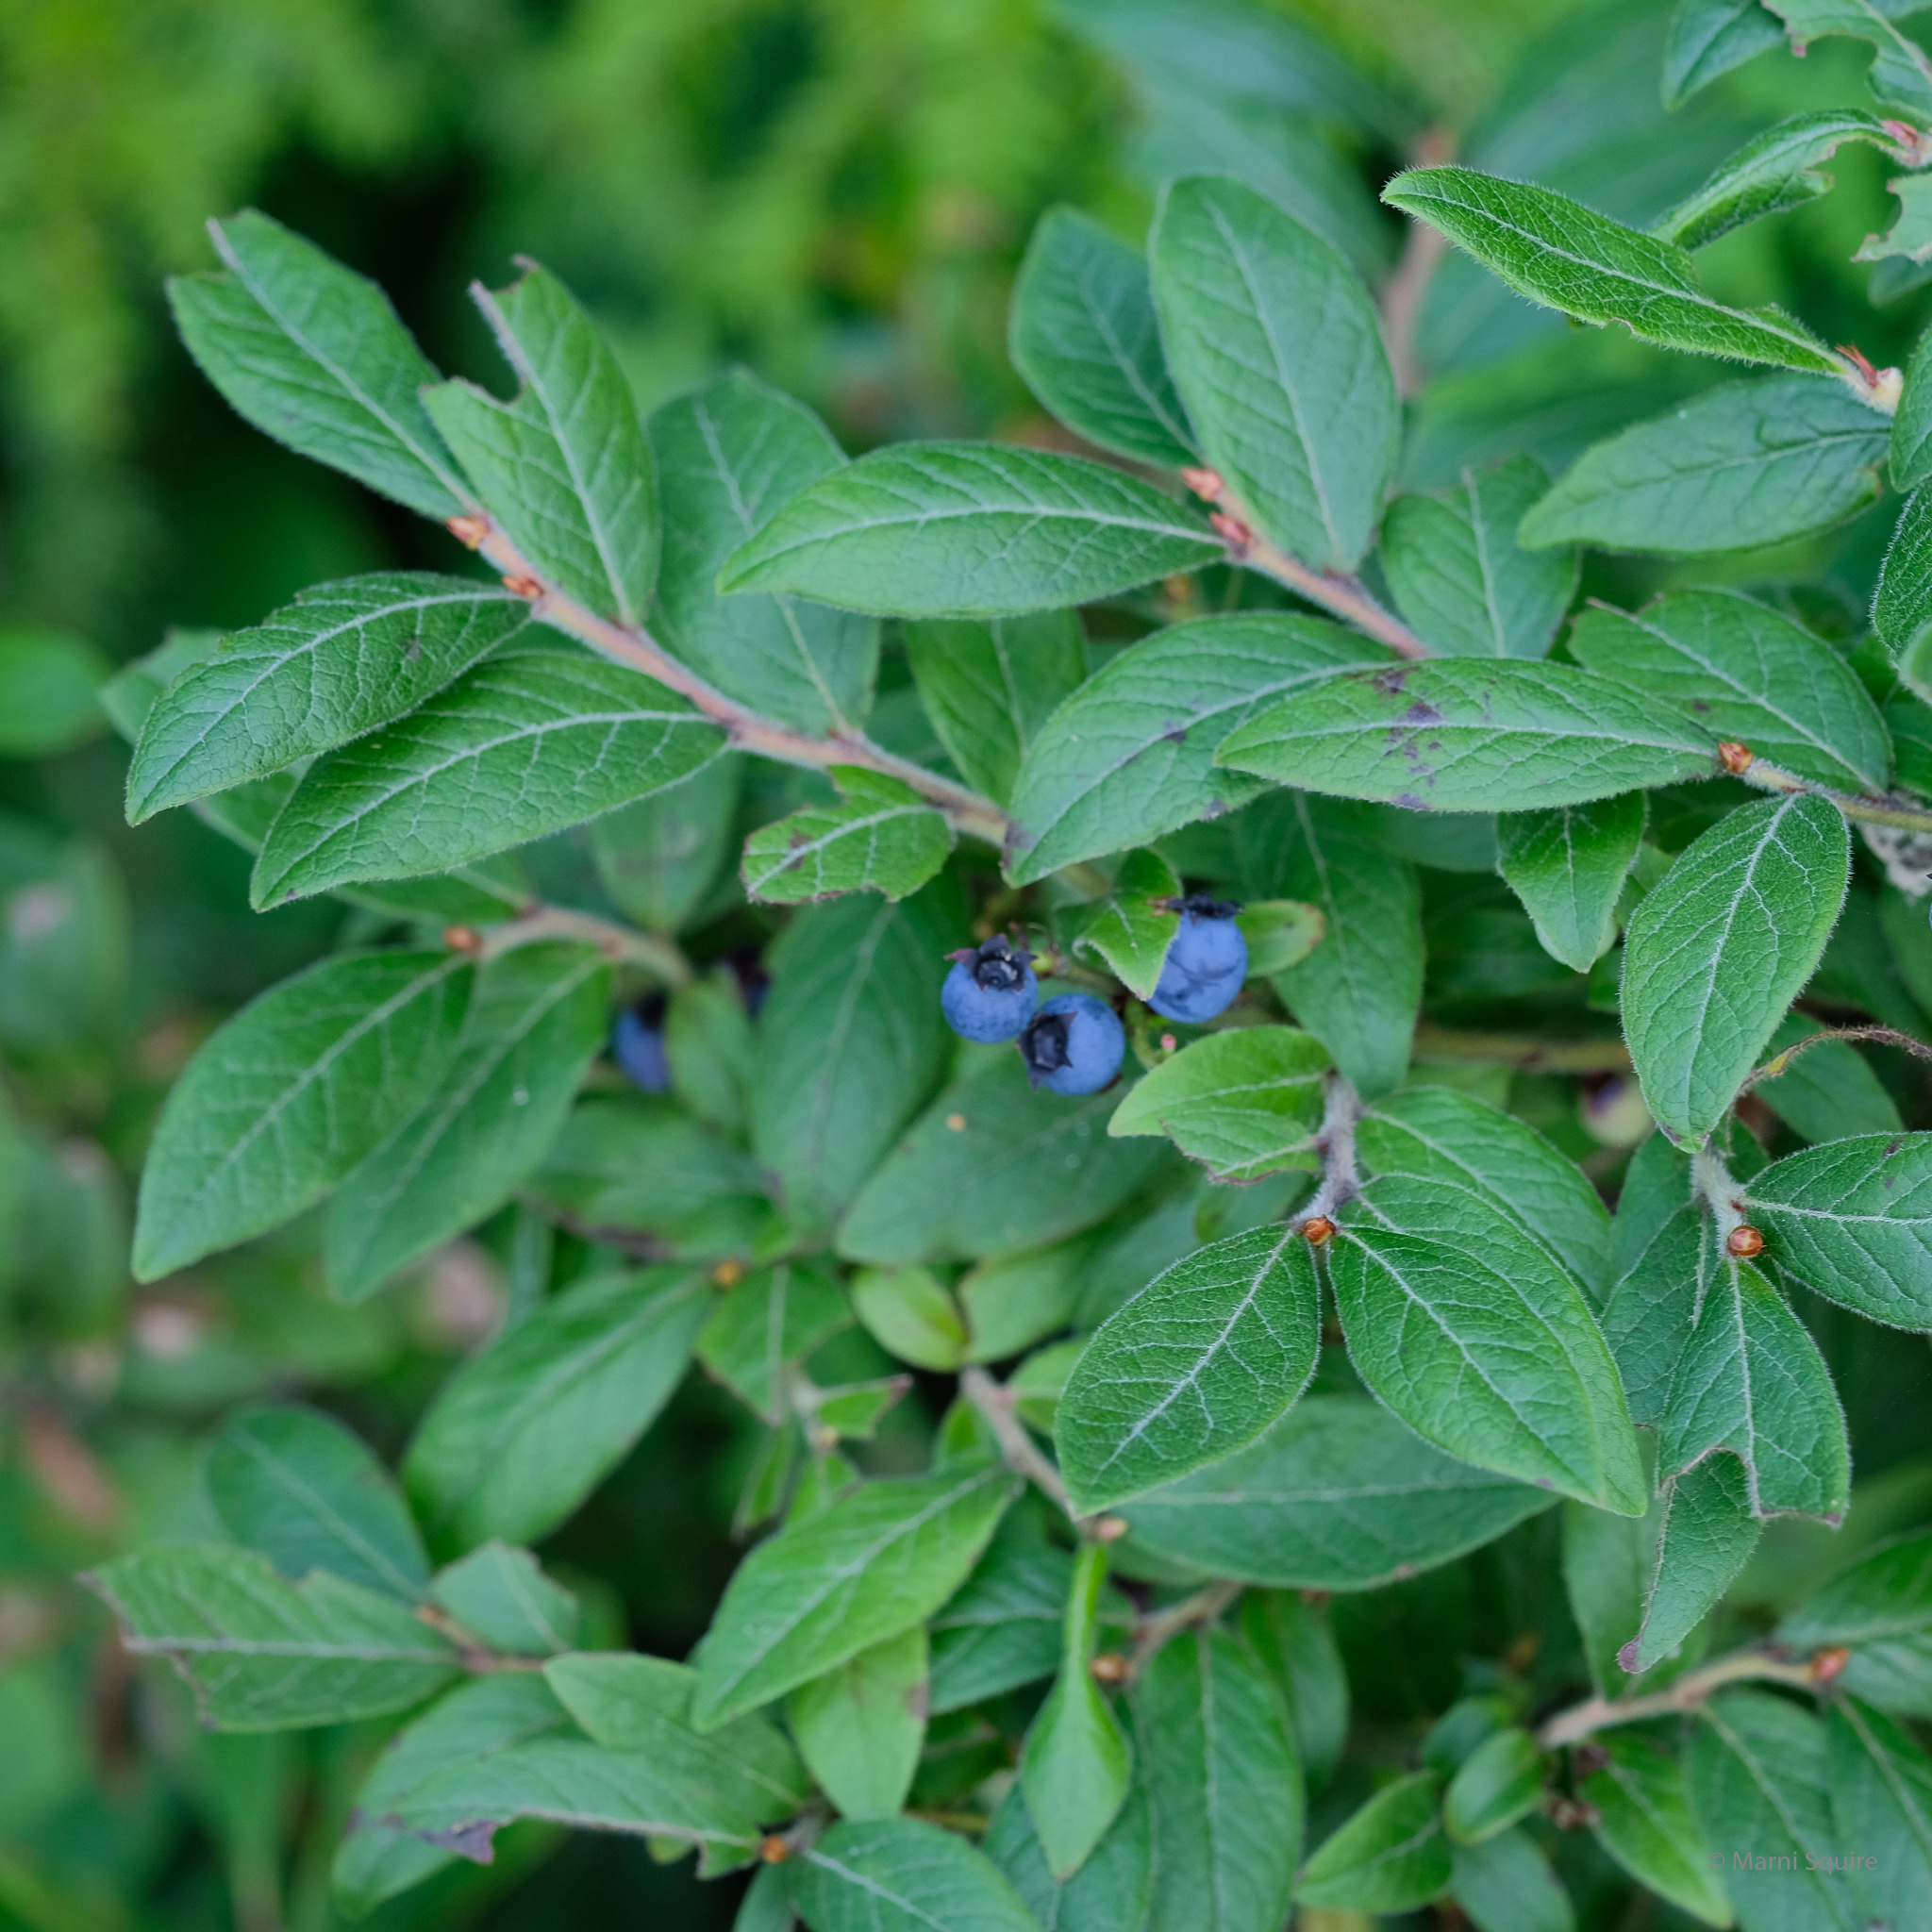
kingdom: Plantae
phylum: Tracheophyta
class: Magnoliopsida
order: Ericales
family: Ericaceae
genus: Vaccinium
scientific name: Vaccinium myrtilloides
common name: Canada blueberry
